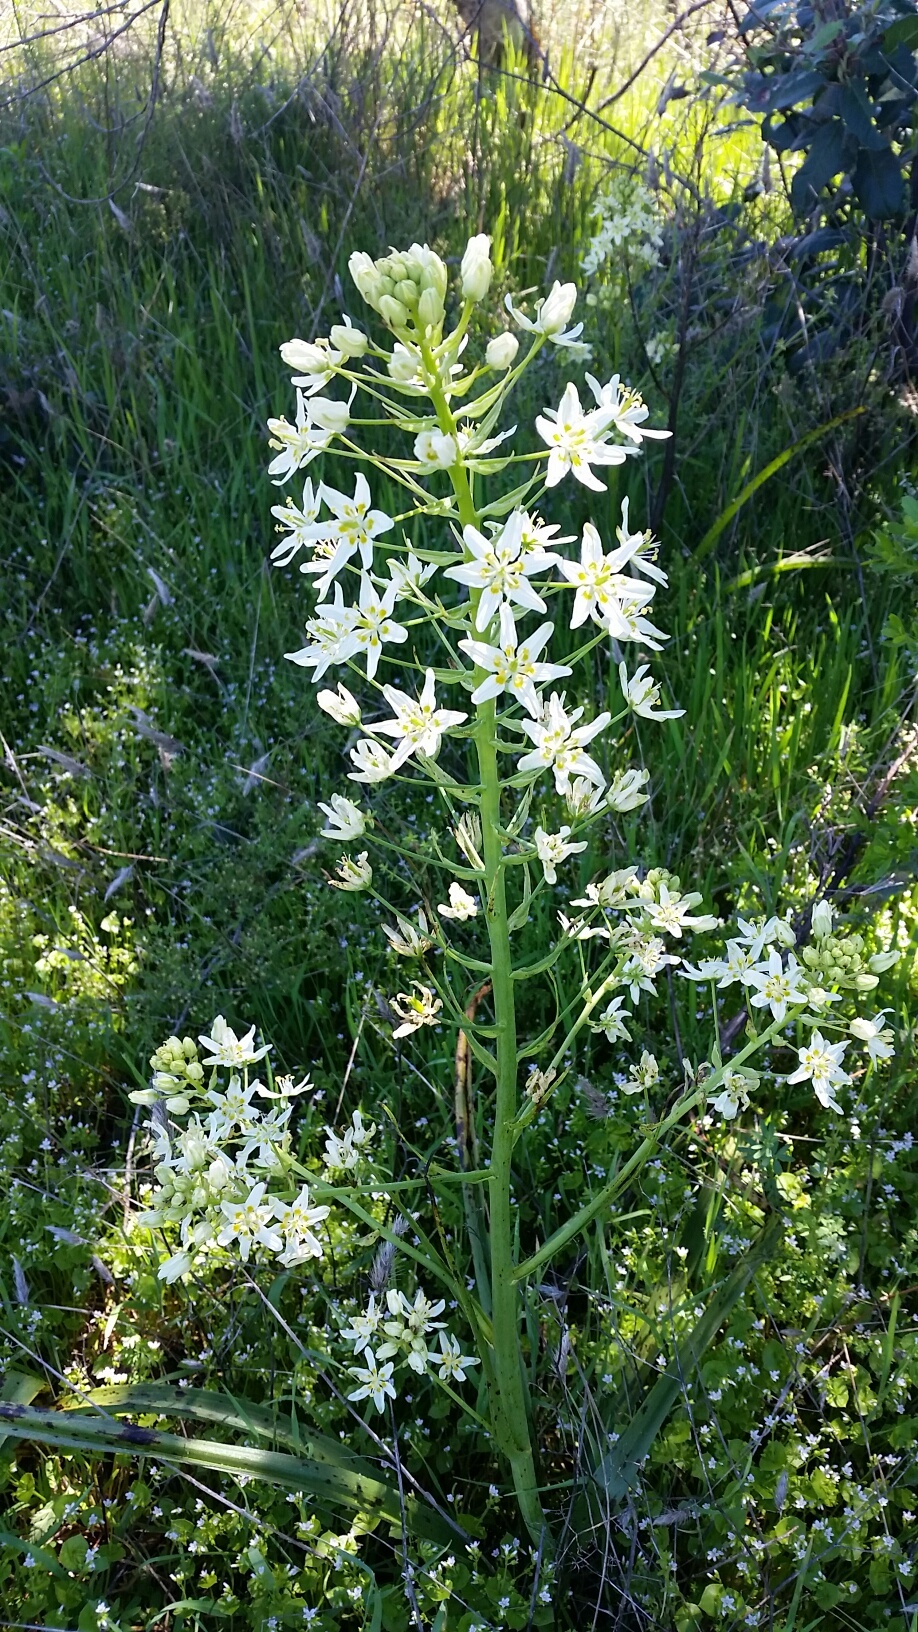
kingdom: Plantae
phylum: Tracheophyta
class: Liliopsida
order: Liliales
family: Melanthiaceae
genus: Toxicoscordion
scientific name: Toxicoscordion fremontii
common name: Fremont's death camas
